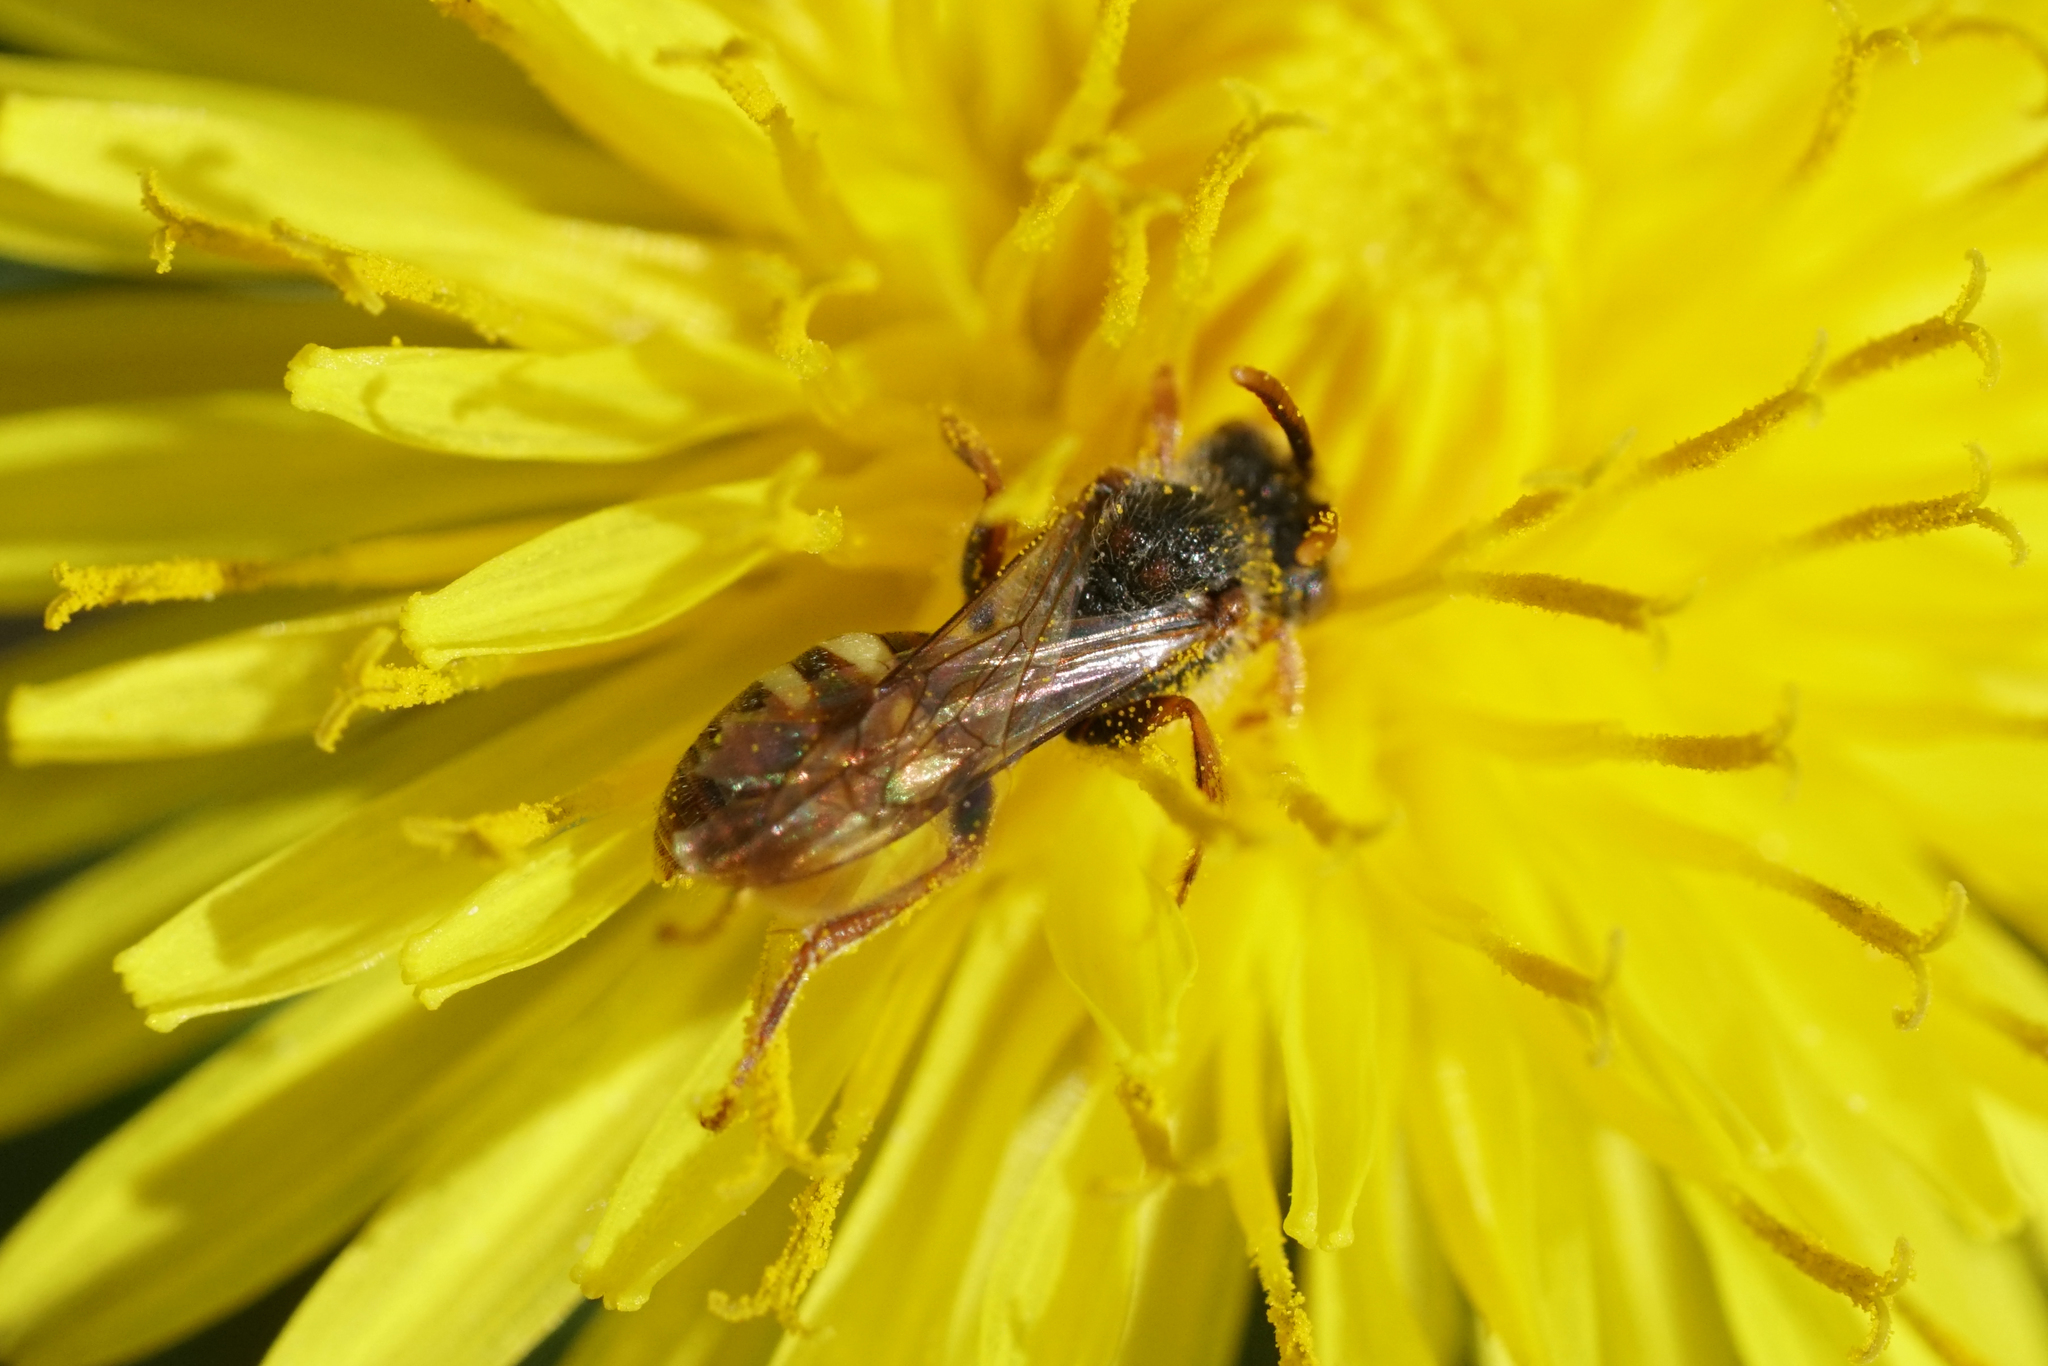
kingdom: Animalia
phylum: Arthropoda
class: Insecta
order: Hymenoptera
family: Apidae
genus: Nomada
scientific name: Nomada
